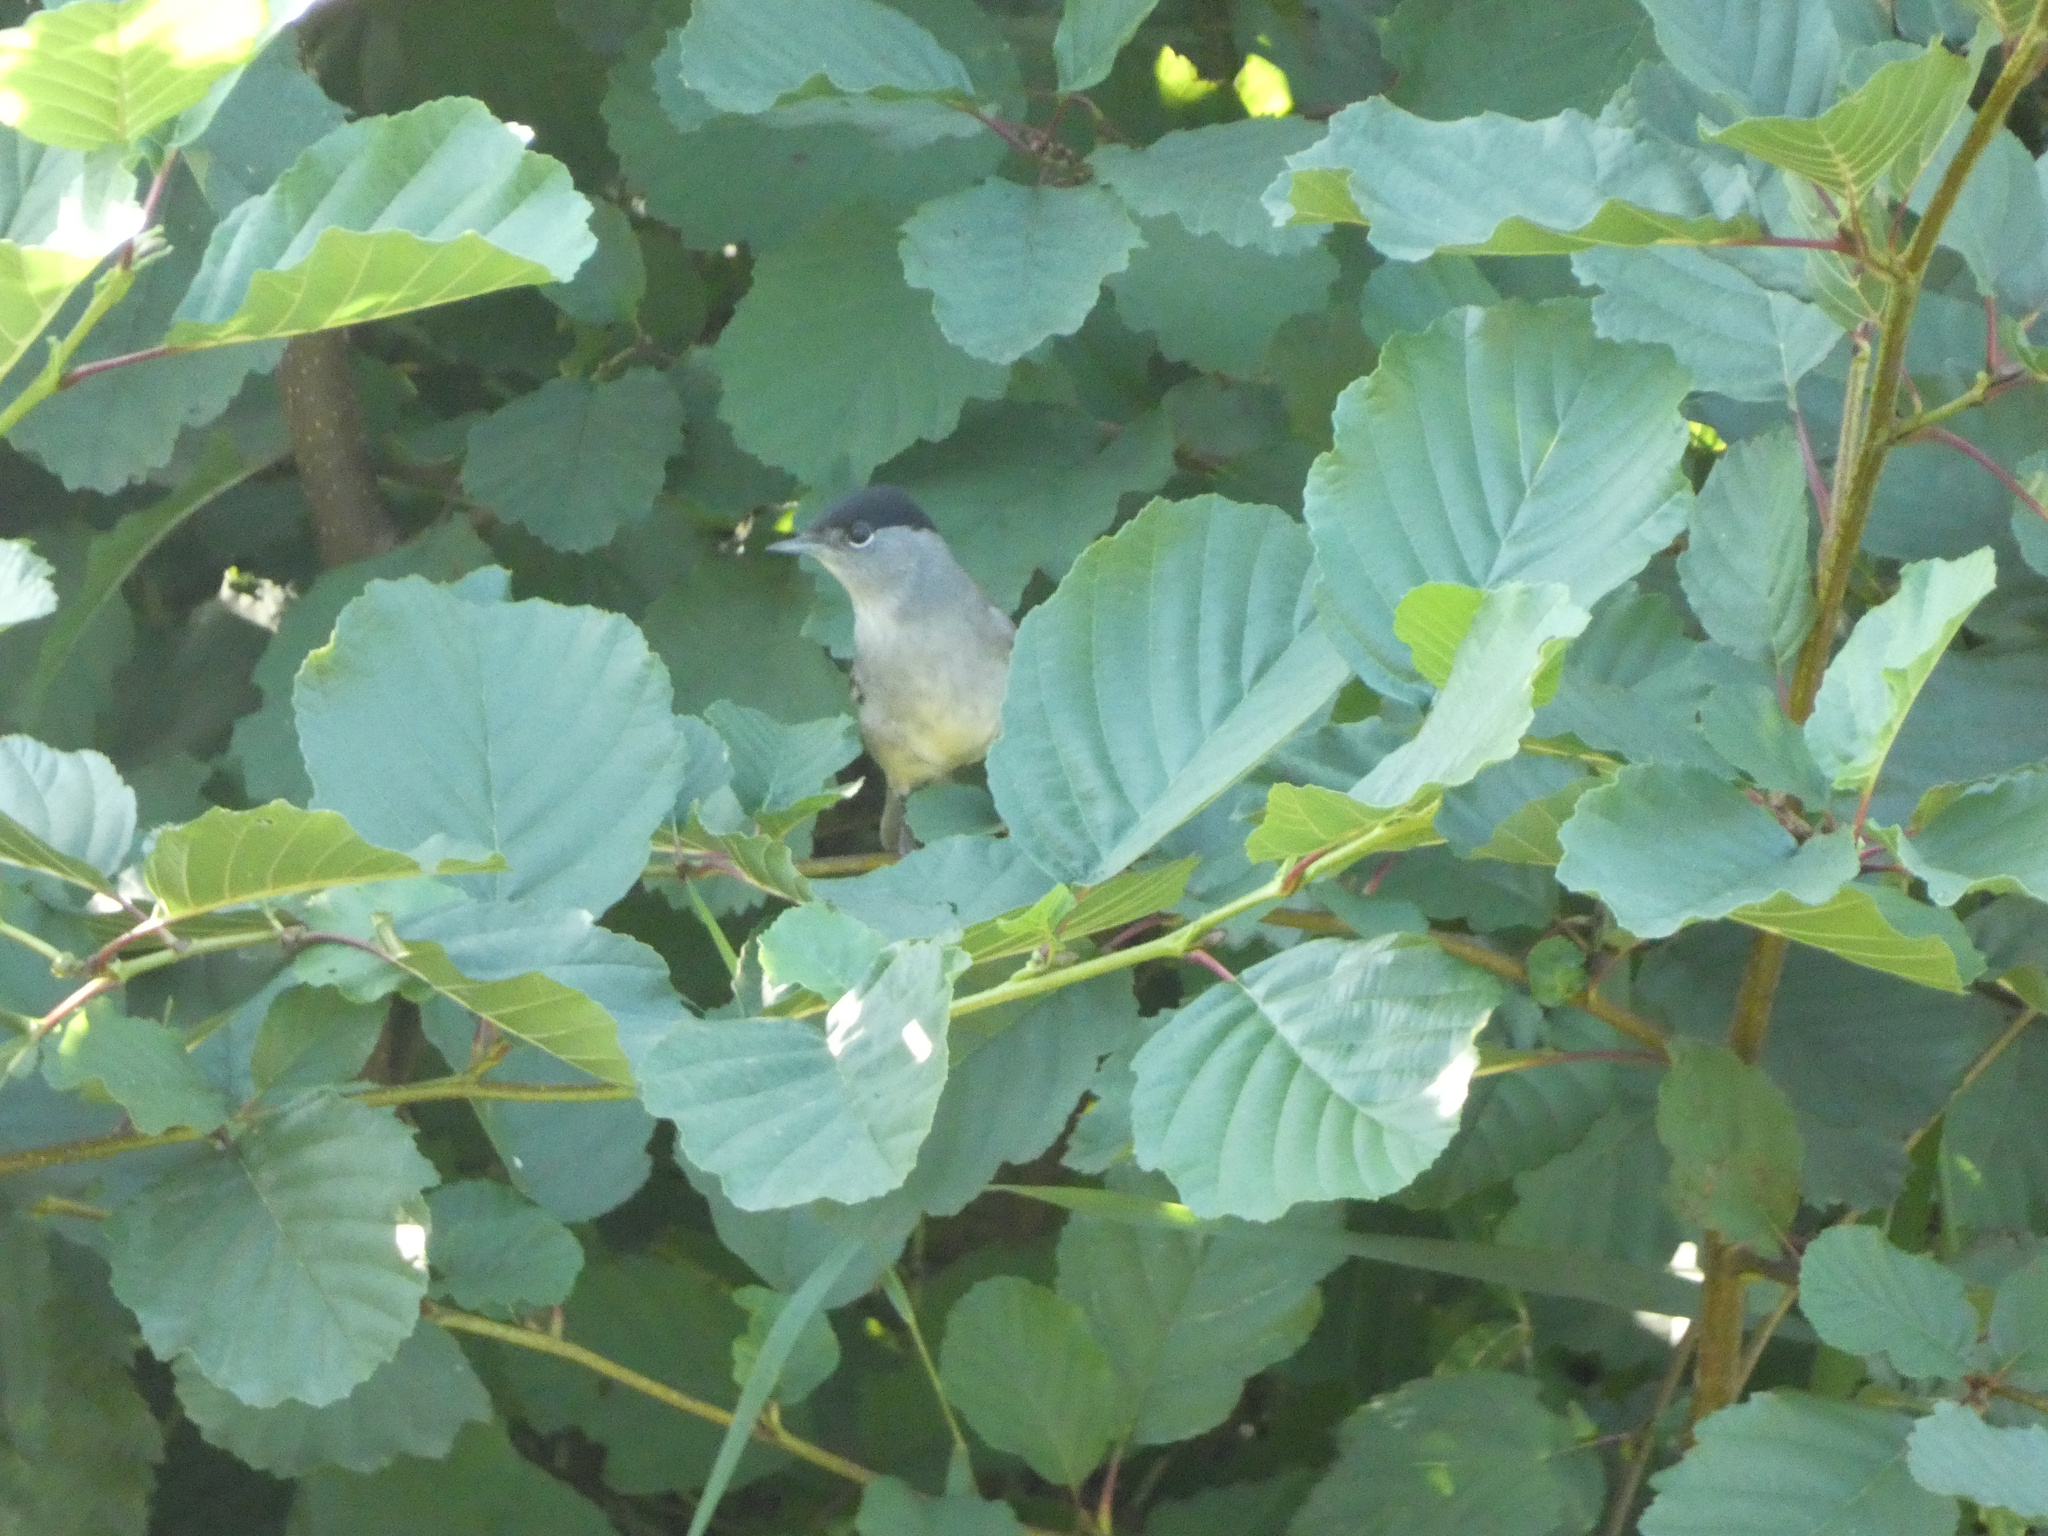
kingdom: Animalia
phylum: Chordata
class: Aves
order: Passeriformes
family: Sylviidae
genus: Sylvia
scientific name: Sylvia atricapilla
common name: Eurasian blackcap
